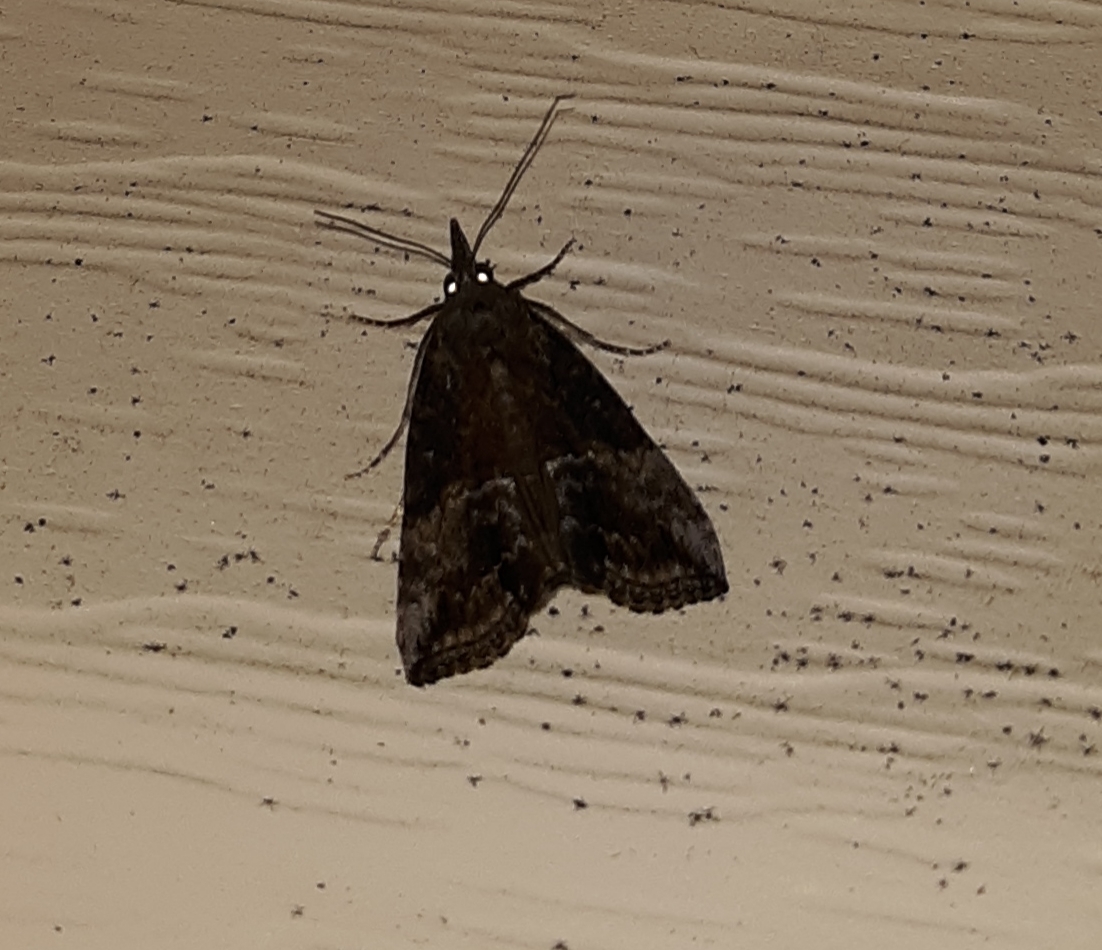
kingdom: Animalia
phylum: Arthropoda
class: Insecta
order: Lepidoptera
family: Erebidae
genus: Hypena
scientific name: Hypena scabra
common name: Green cloverworm
